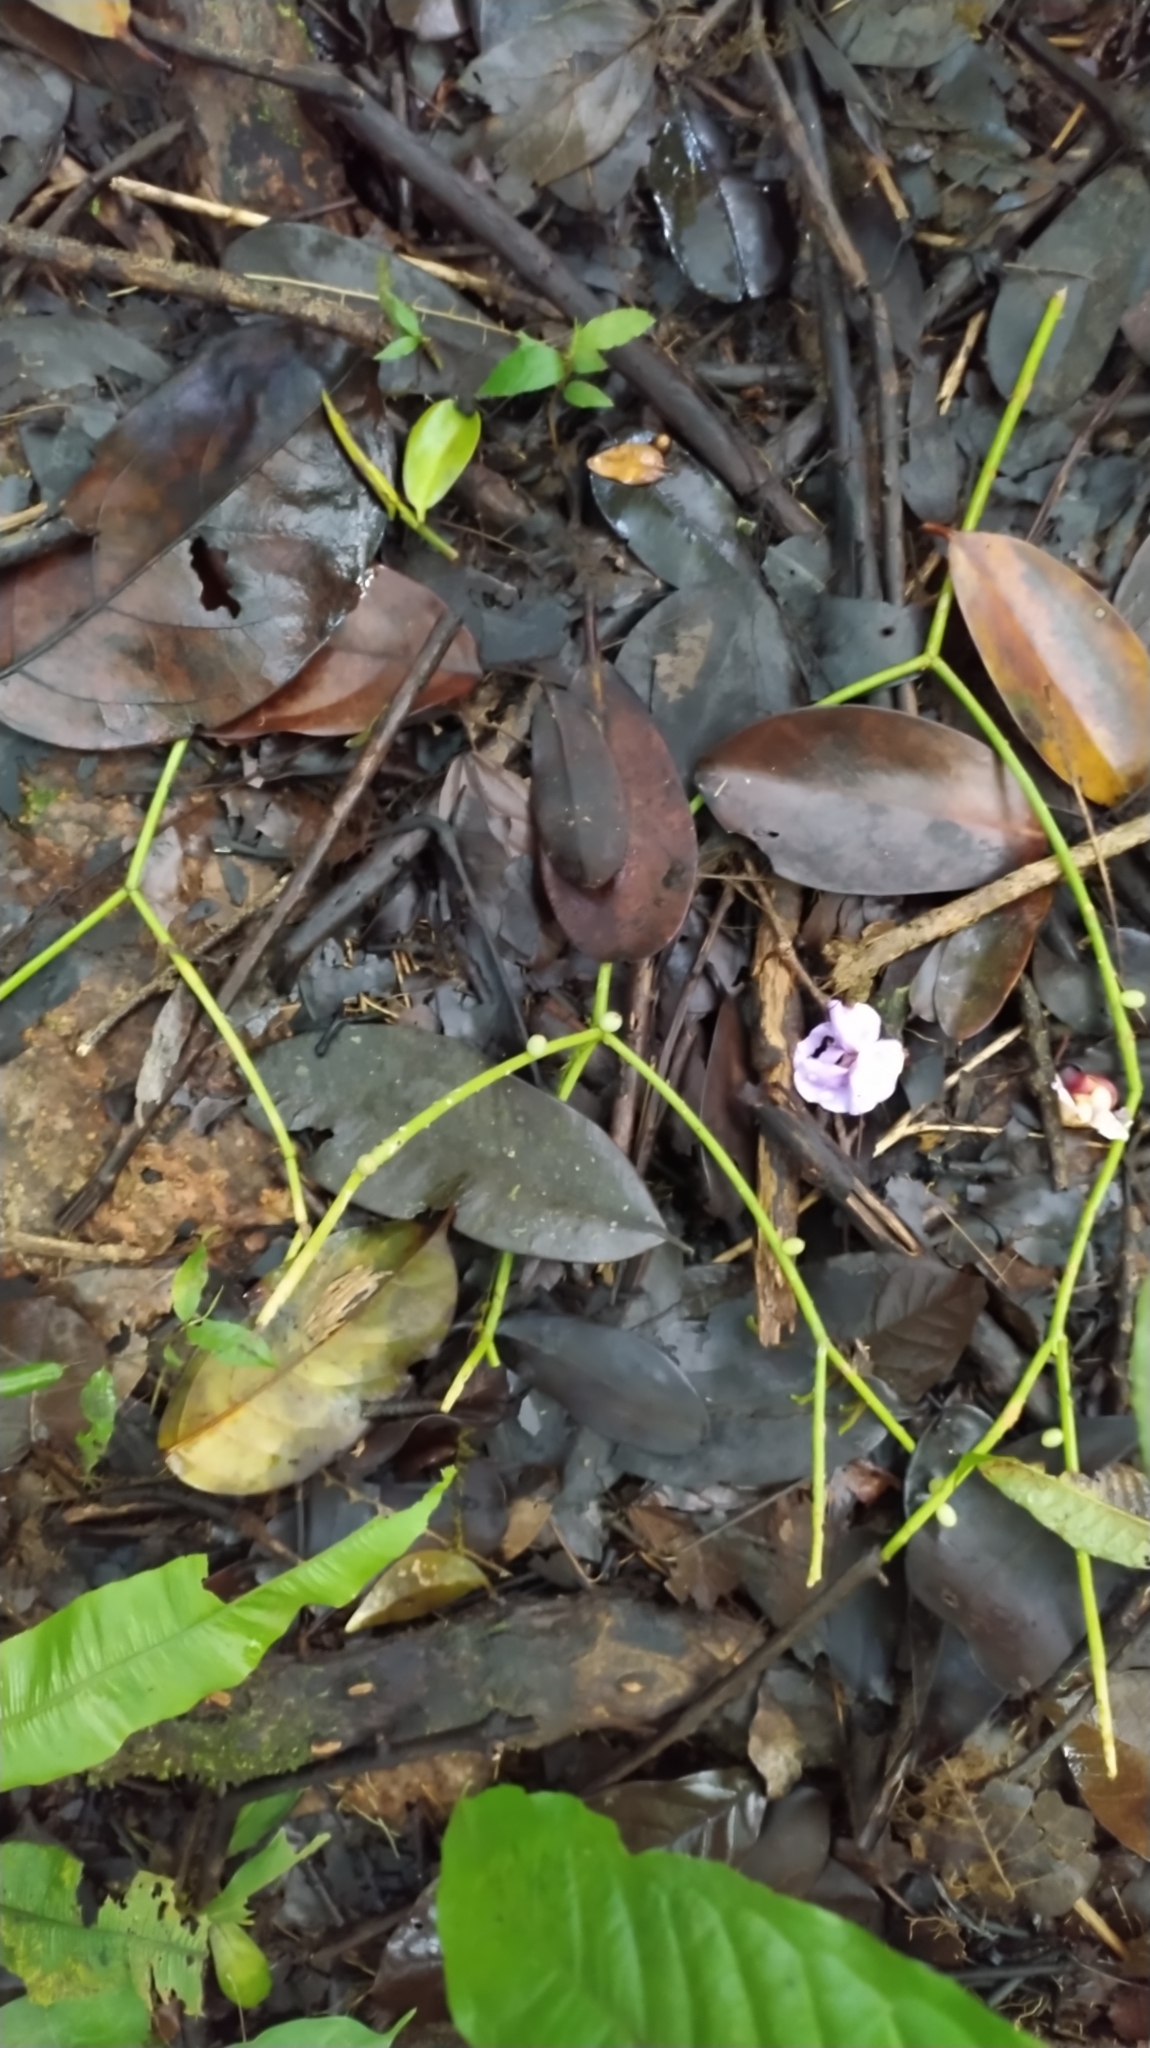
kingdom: Plantae
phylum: Tracheophyta
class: Magnoliopsida
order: Caryophyllales
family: Cactaceae
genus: Rhipsalis
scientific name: Rhipsalis baccifera
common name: Mistletoe cactus
